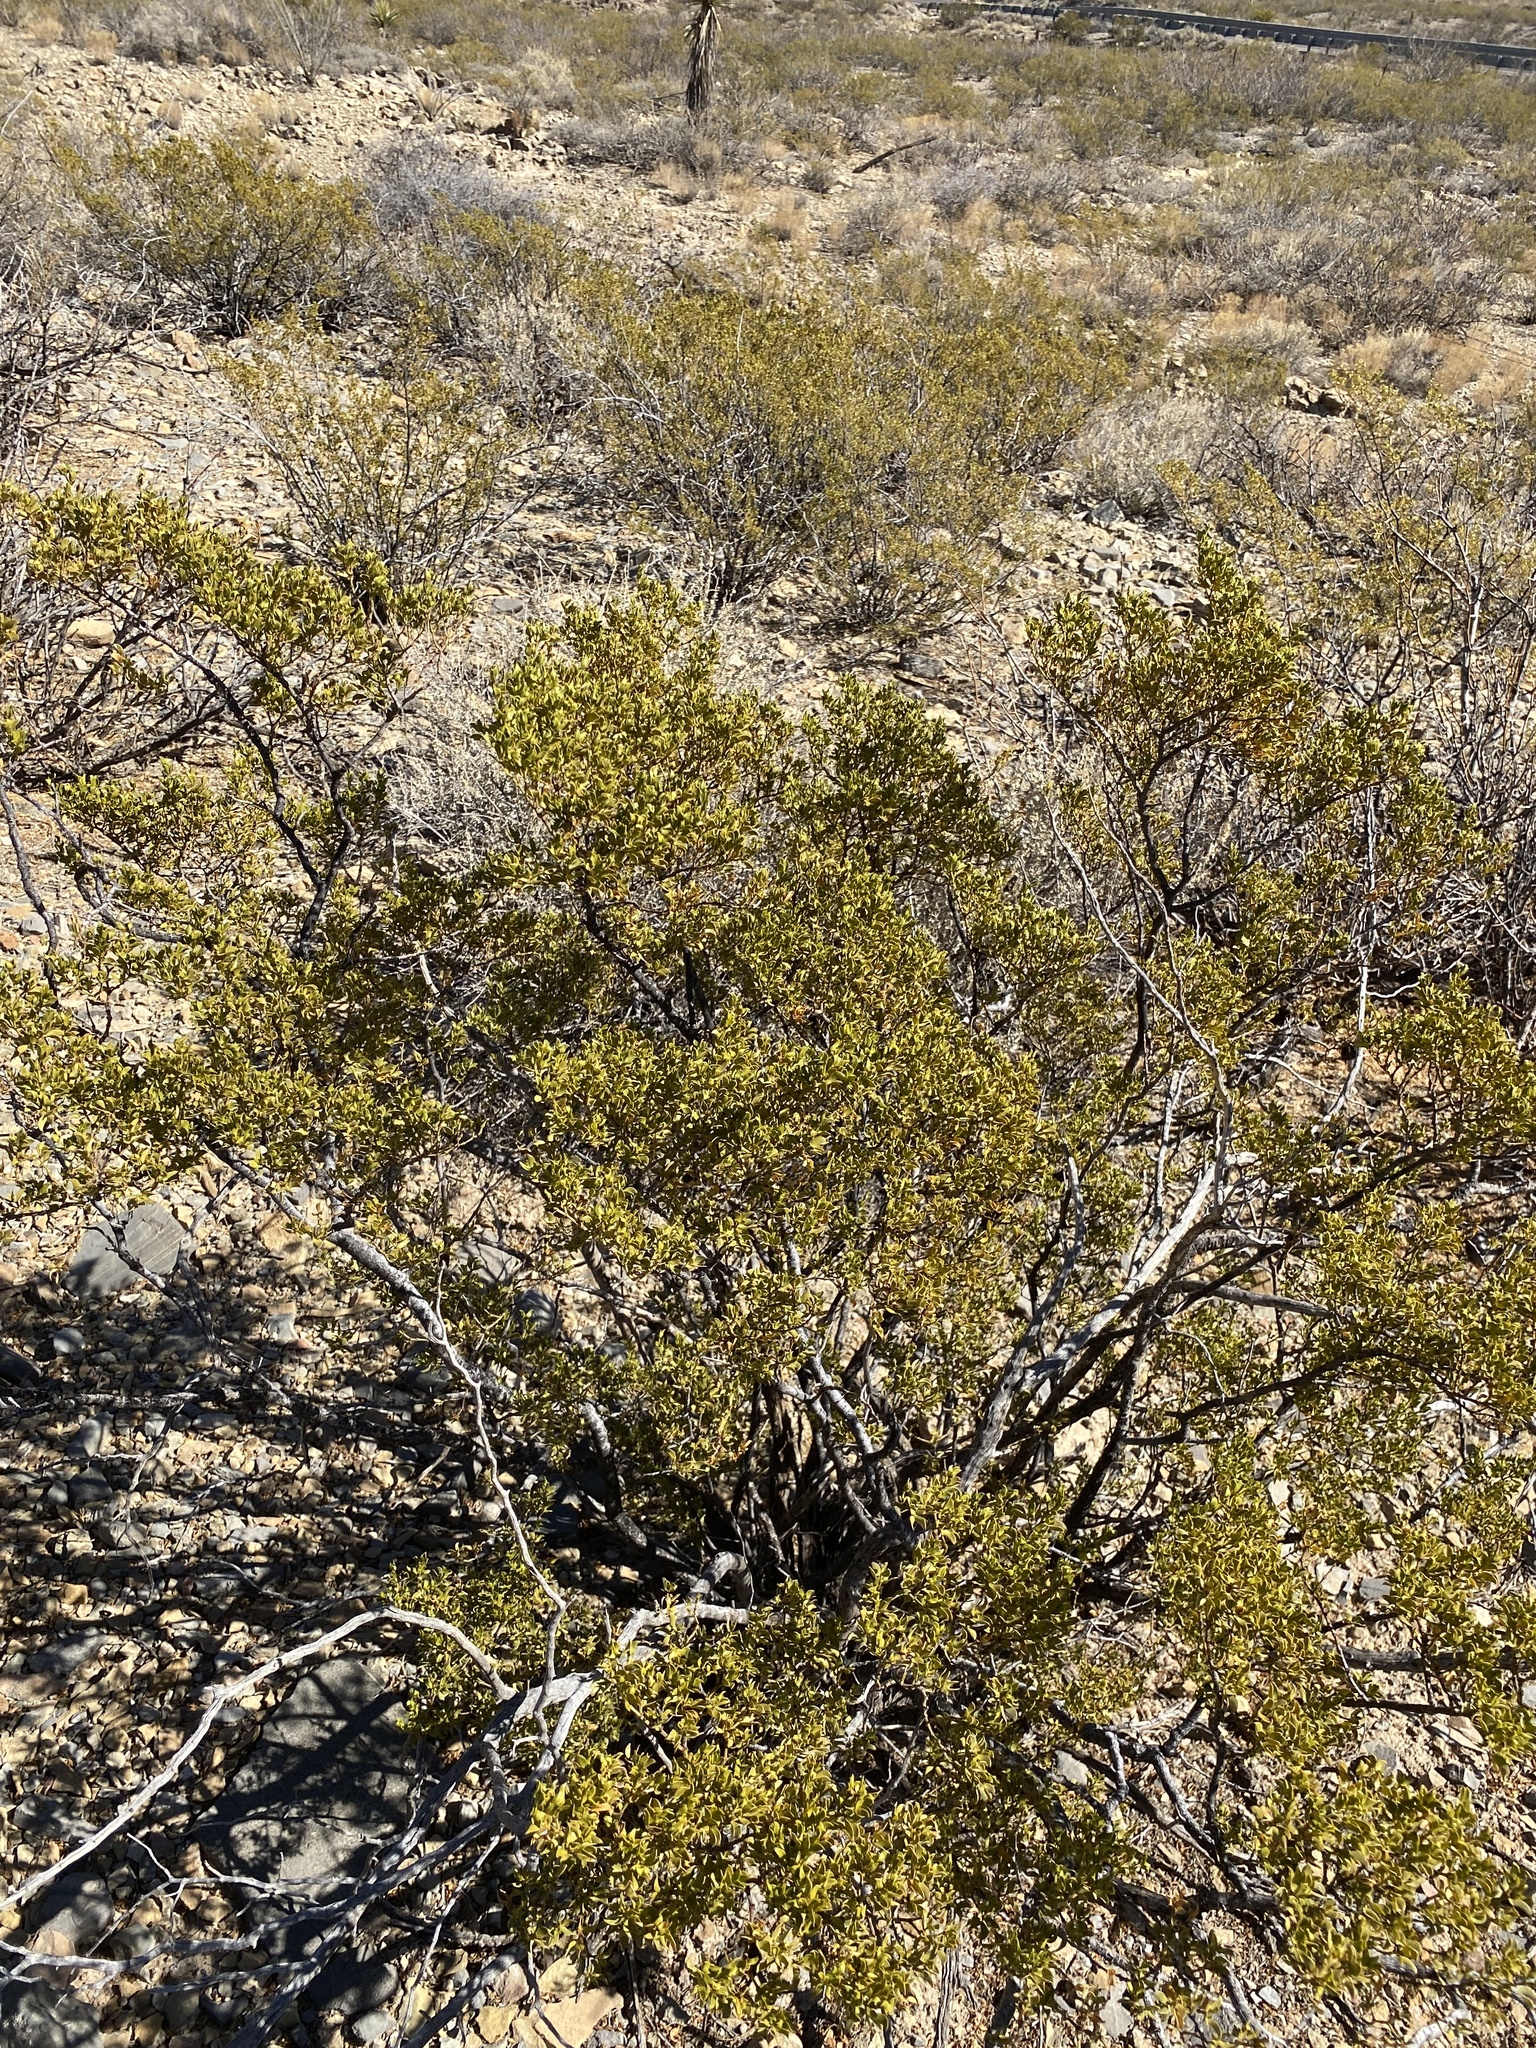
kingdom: Plantae
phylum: Tracheophyta
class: Magnoliopsida
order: Zygophyllales
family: Zygophyllaceae
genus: Larrea
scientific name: Larrea tridentata
